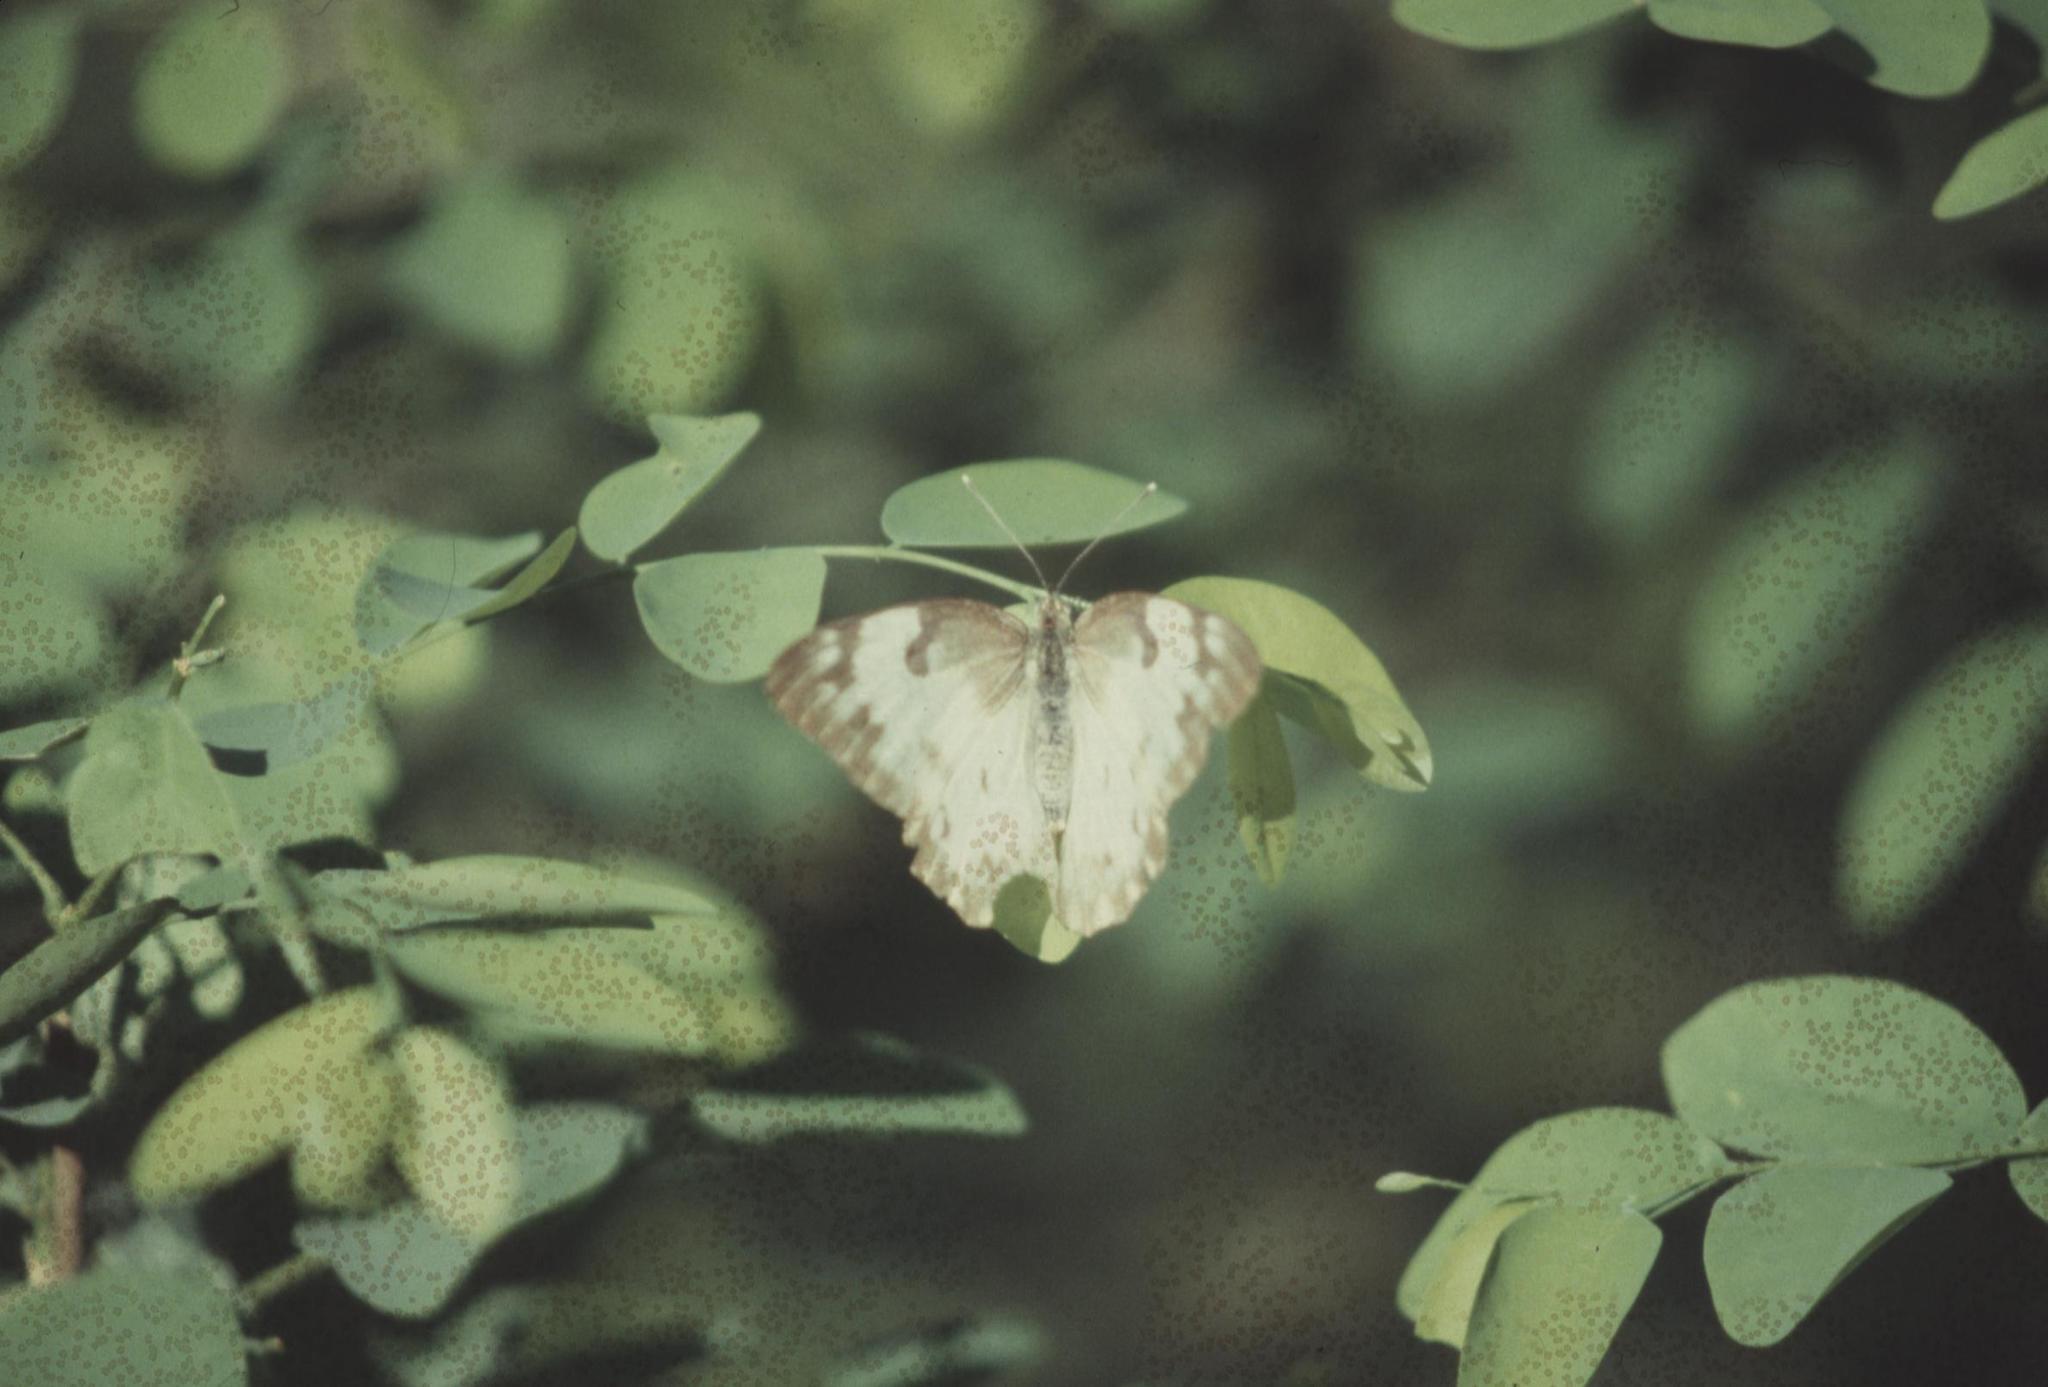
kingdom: Animalia
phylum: Arthropoda
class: Insecta
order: Lepidoptera
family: Pieridae
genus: Belenois
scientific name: Belenois gidica
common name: Pointed caper white
